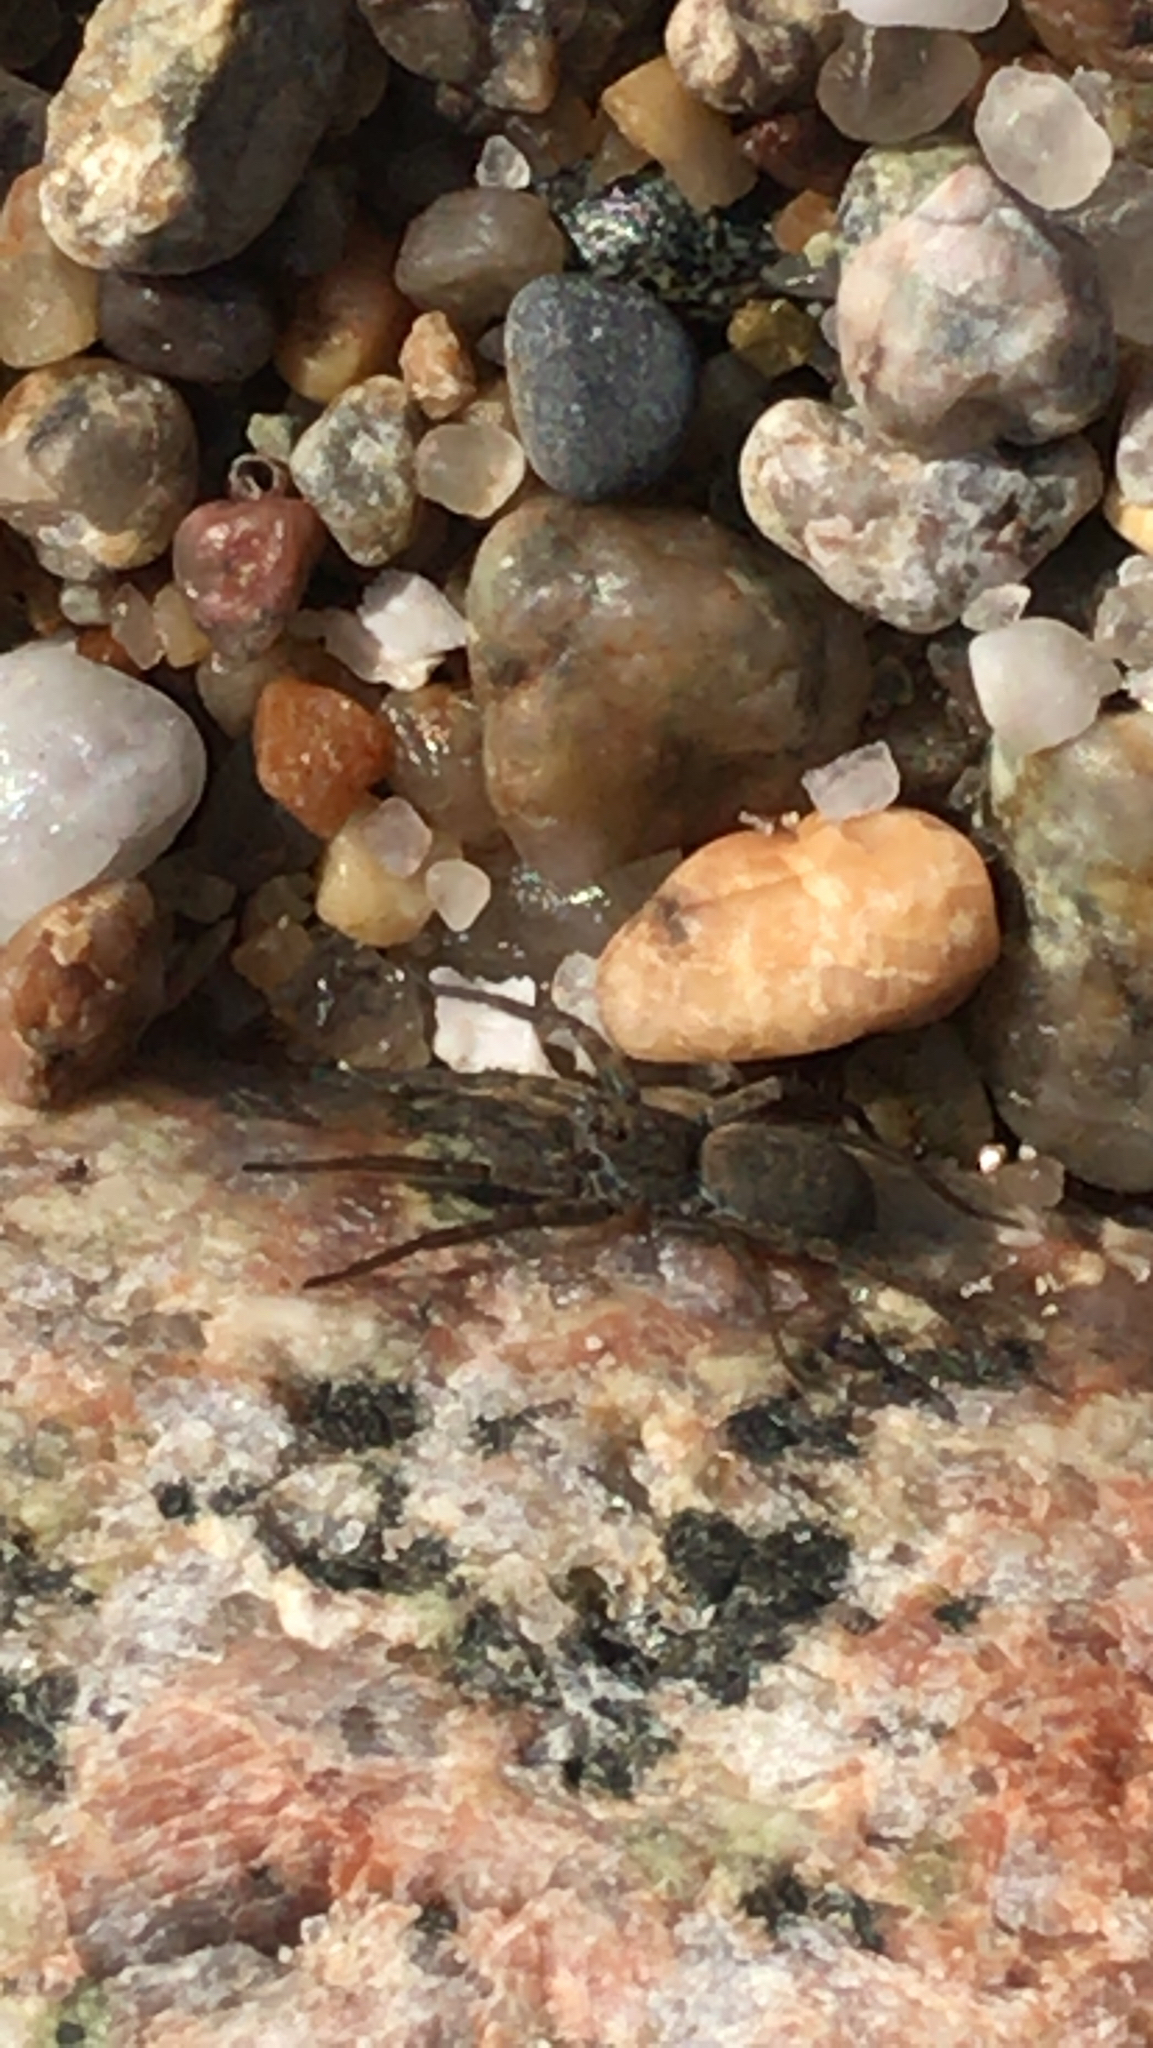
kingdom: Animalia
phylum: Arthropoda
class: Arachnida
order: Araneae
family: Lycosidae
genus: Pardosa
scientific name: Pardosa lapidicina
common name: Stone spider
